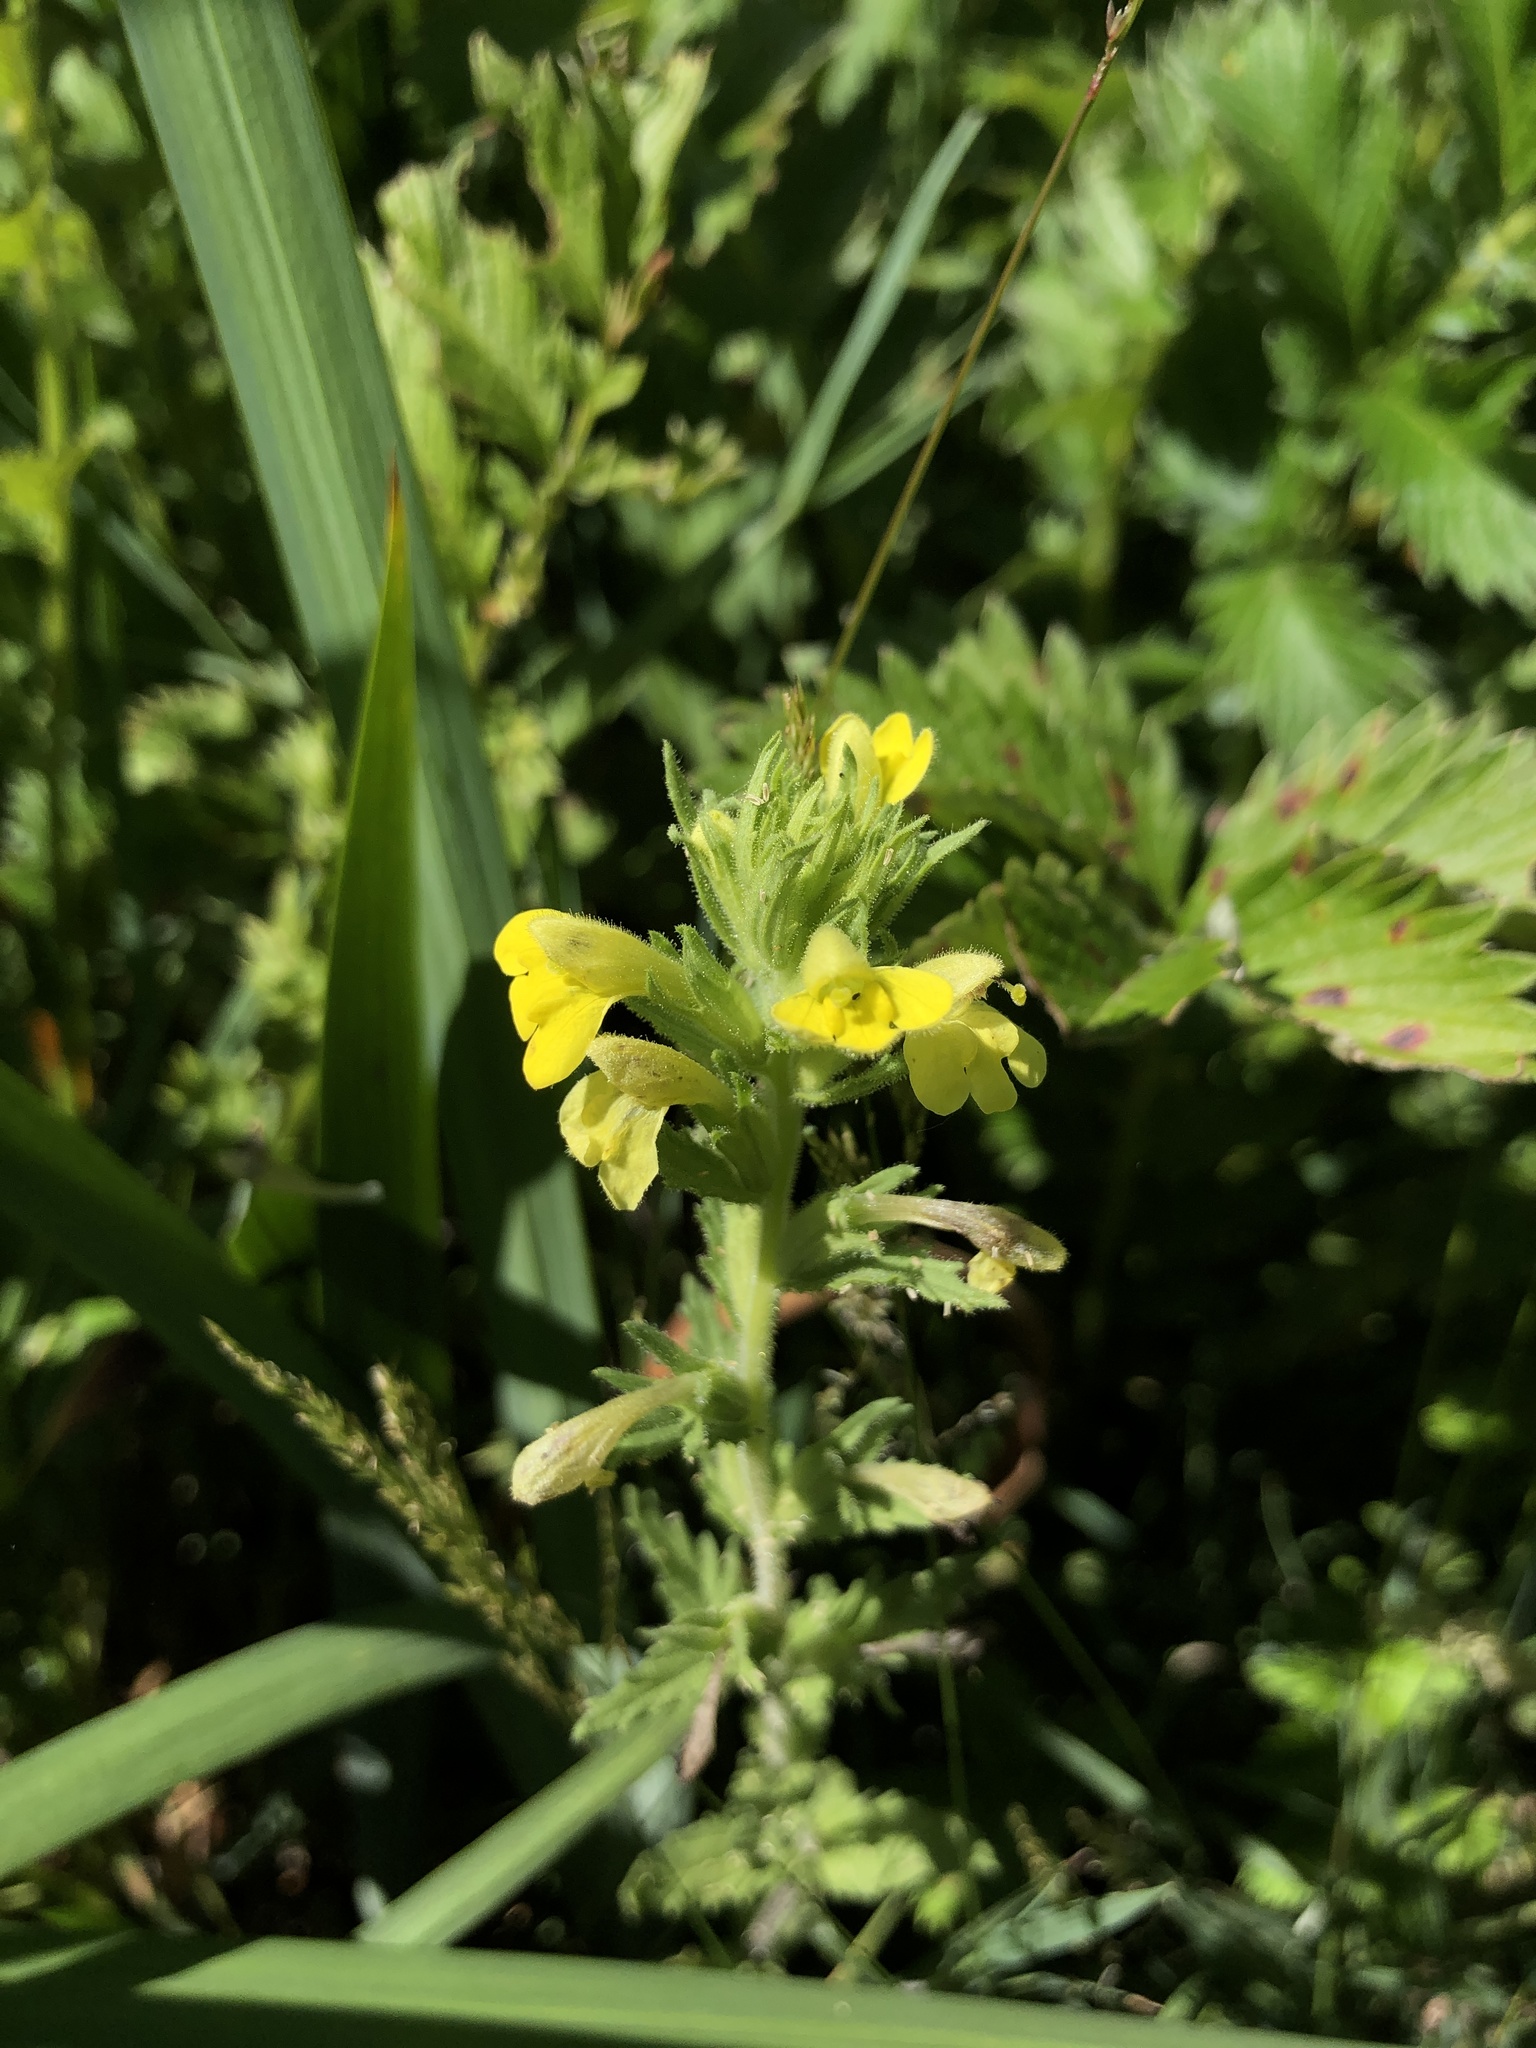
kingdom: Plantae
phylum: Tracheophyta
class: Magnoliopsida
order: Lamiales
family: Orobanchaceae
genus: Bellardia
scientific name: Bellardia viscosa
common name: Sticky parentucellia
